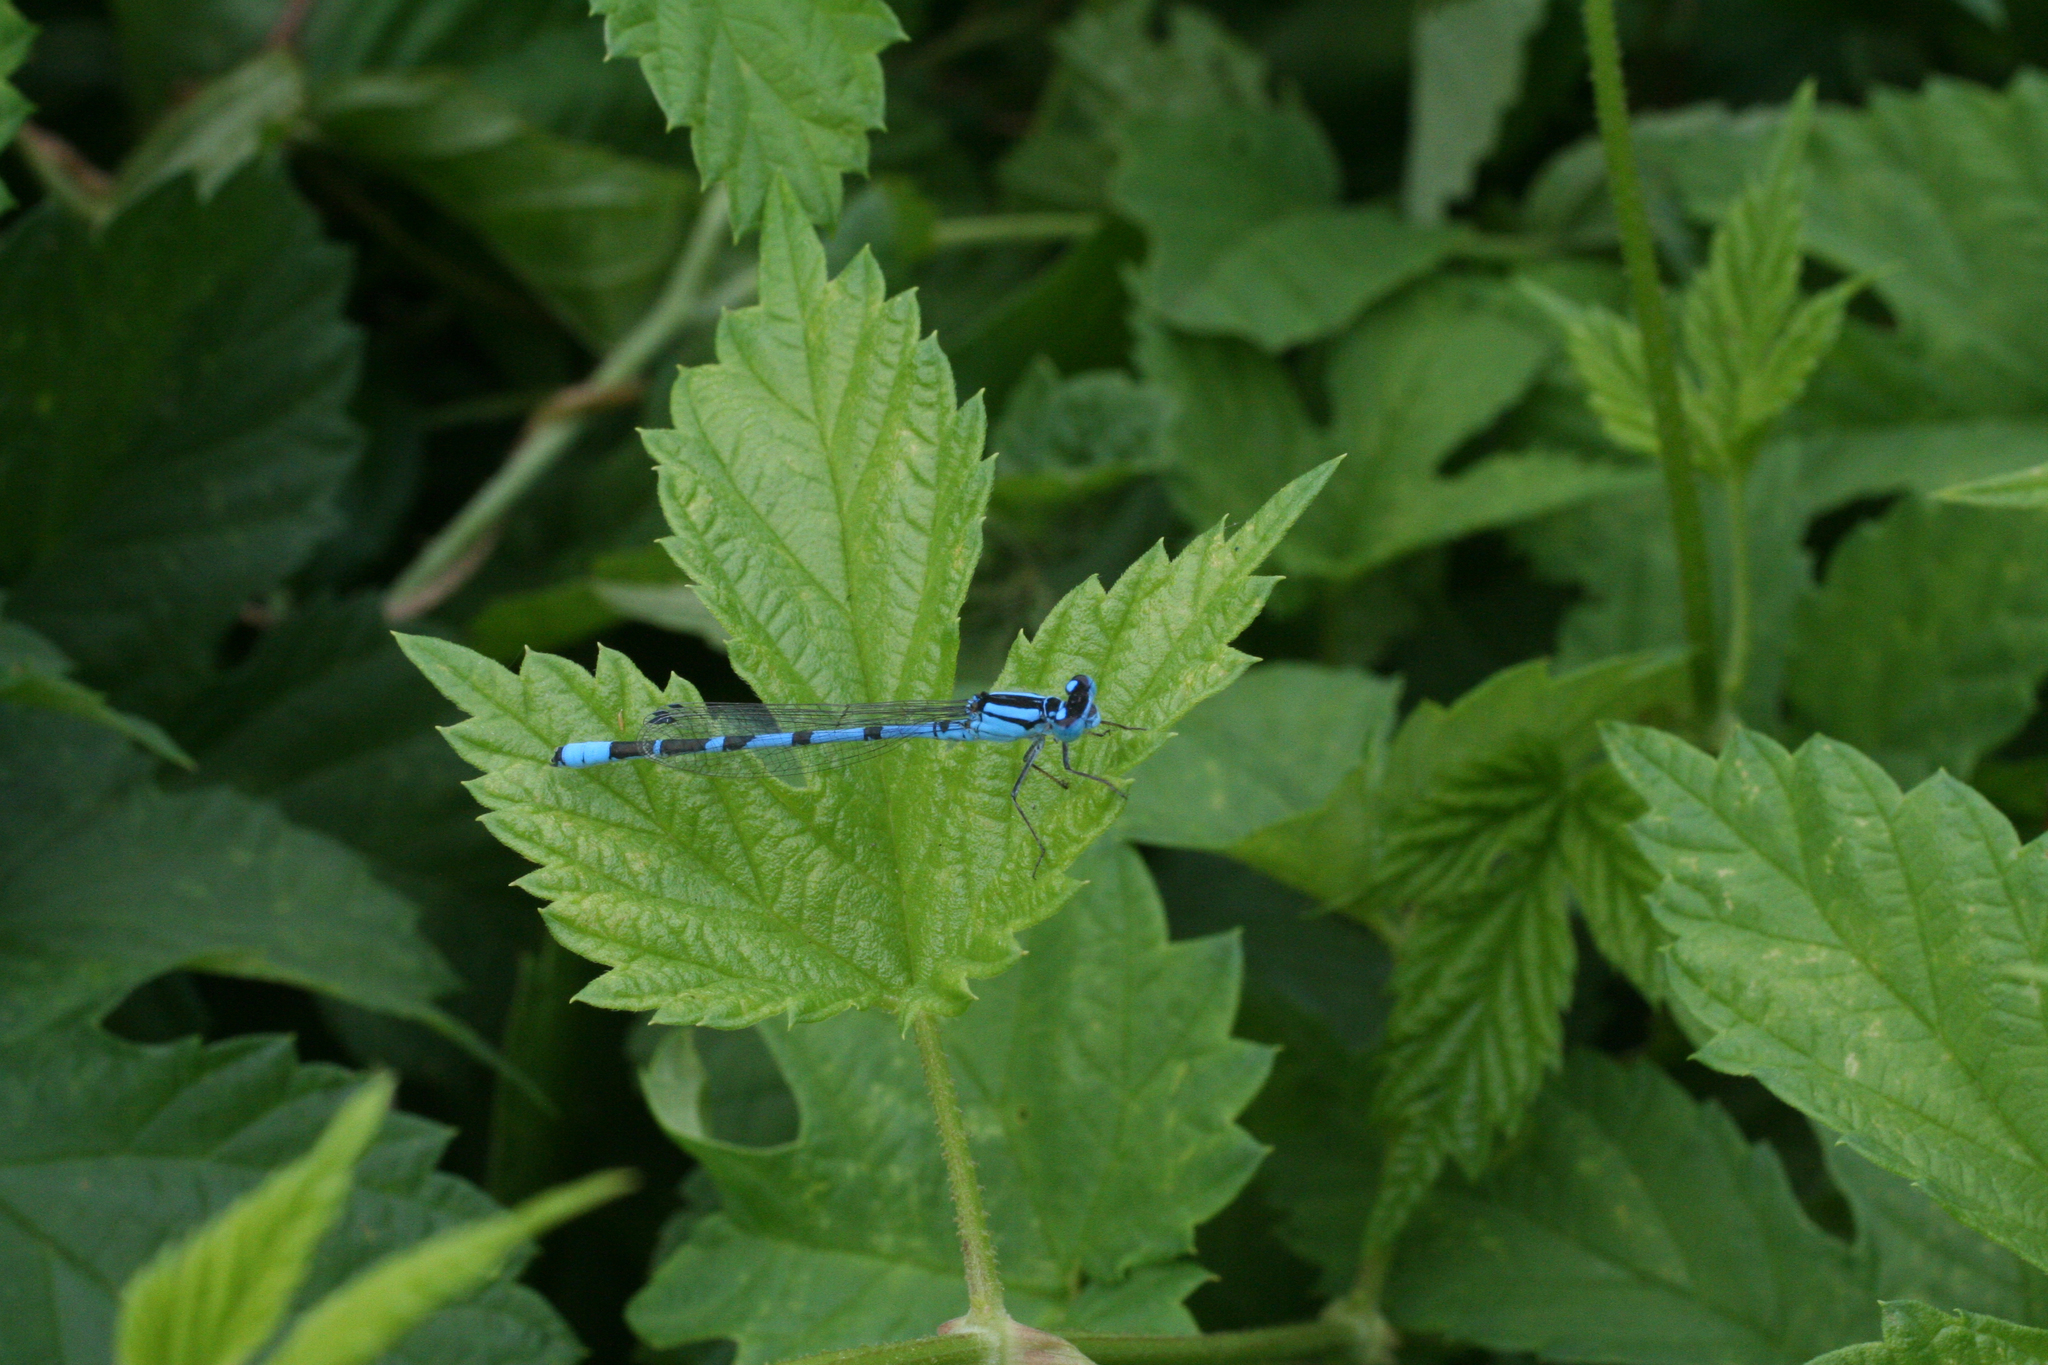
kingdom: Plantae
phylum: Tracheophyta
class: Magnoliopsida
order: Rosales
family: Cannabaceae
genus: Humulus
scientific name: Humulus lupulus
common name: Hop
